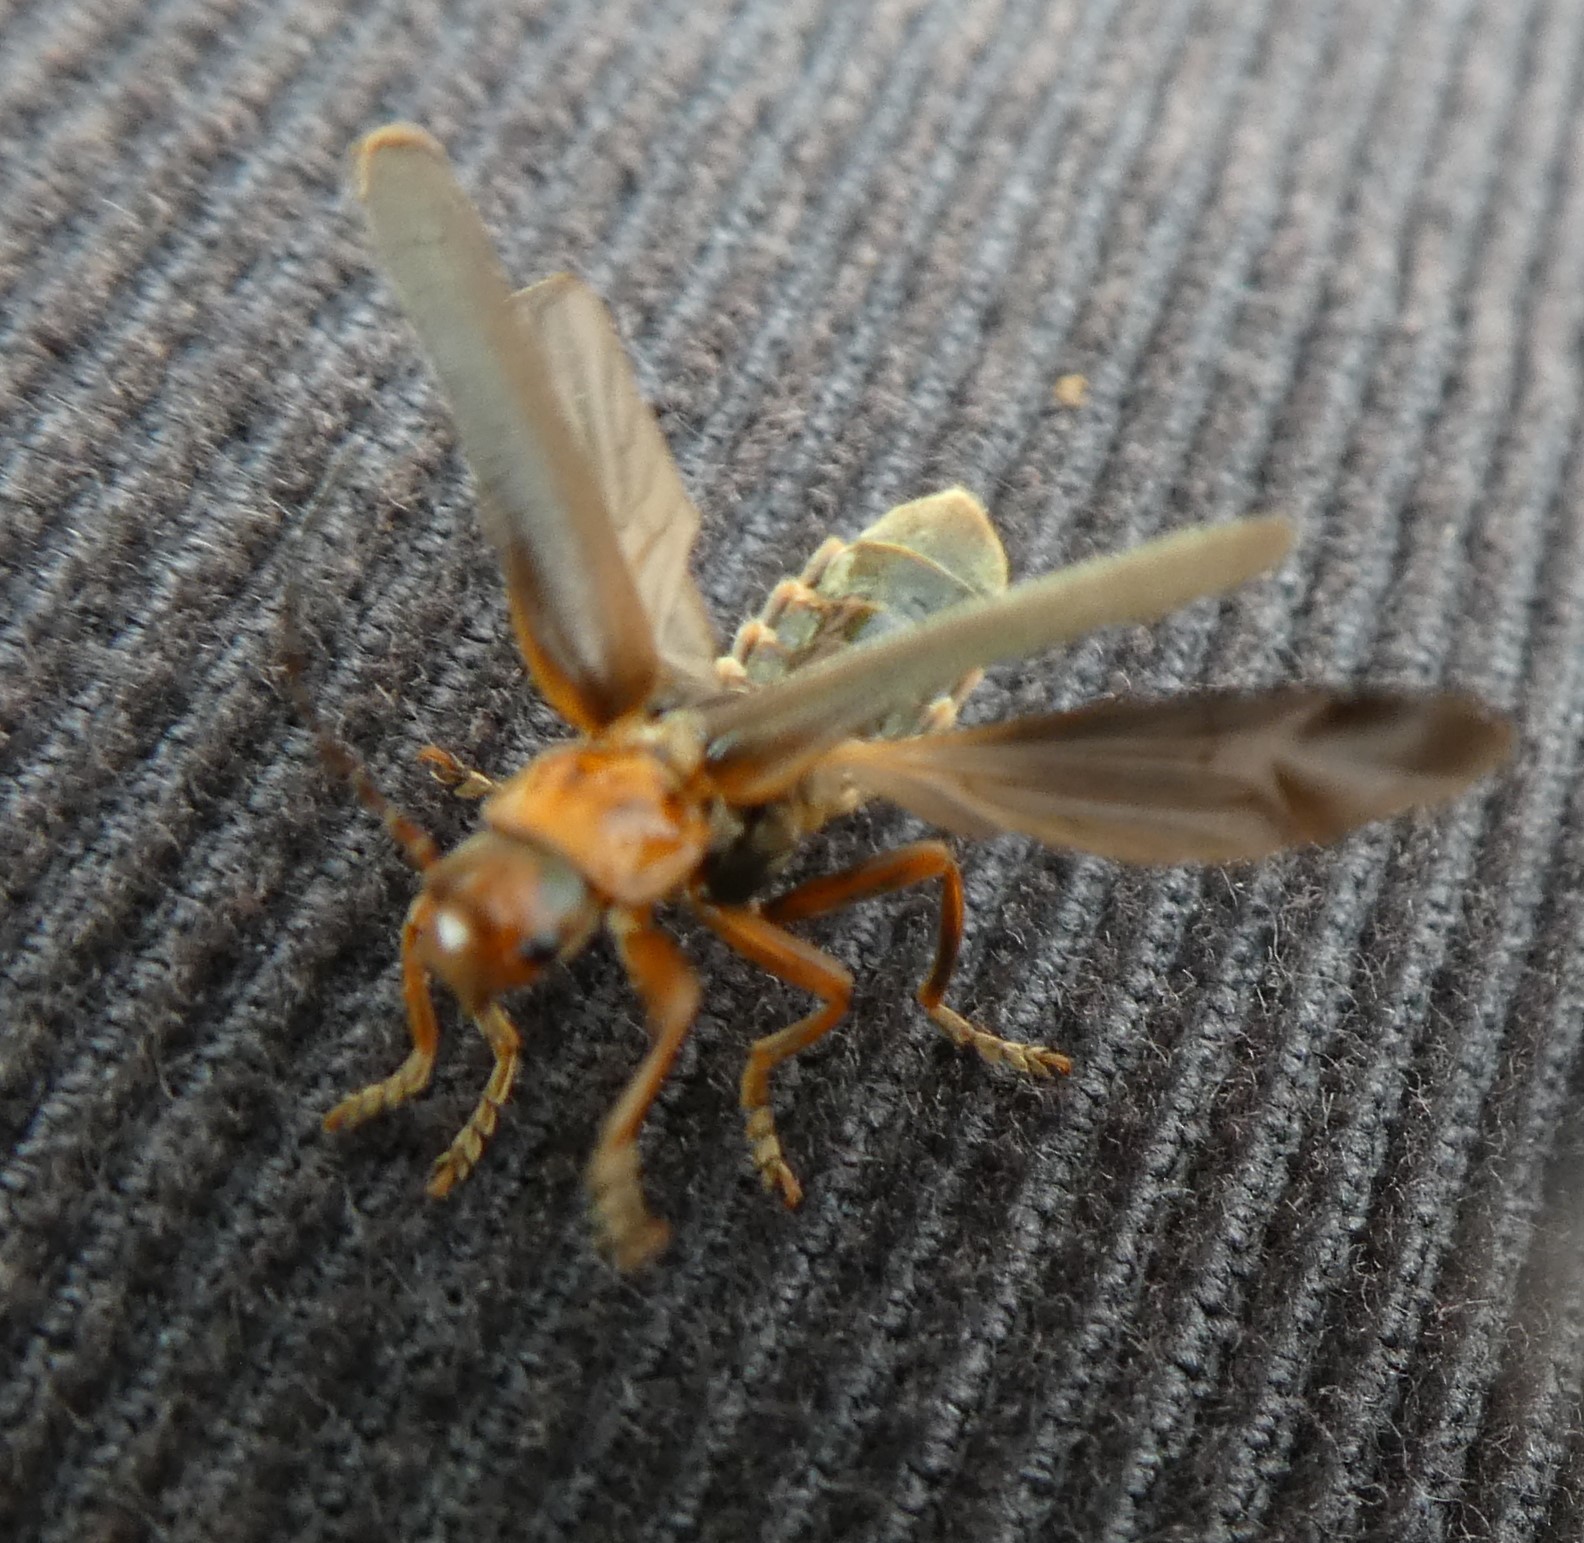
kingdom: Animalia
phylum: Arthropoda
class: Insecta
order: Coleoptera
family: Cantharidae
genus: Cantharis
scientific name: Cantharis rufa
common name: Red-spotted soldier beetle
